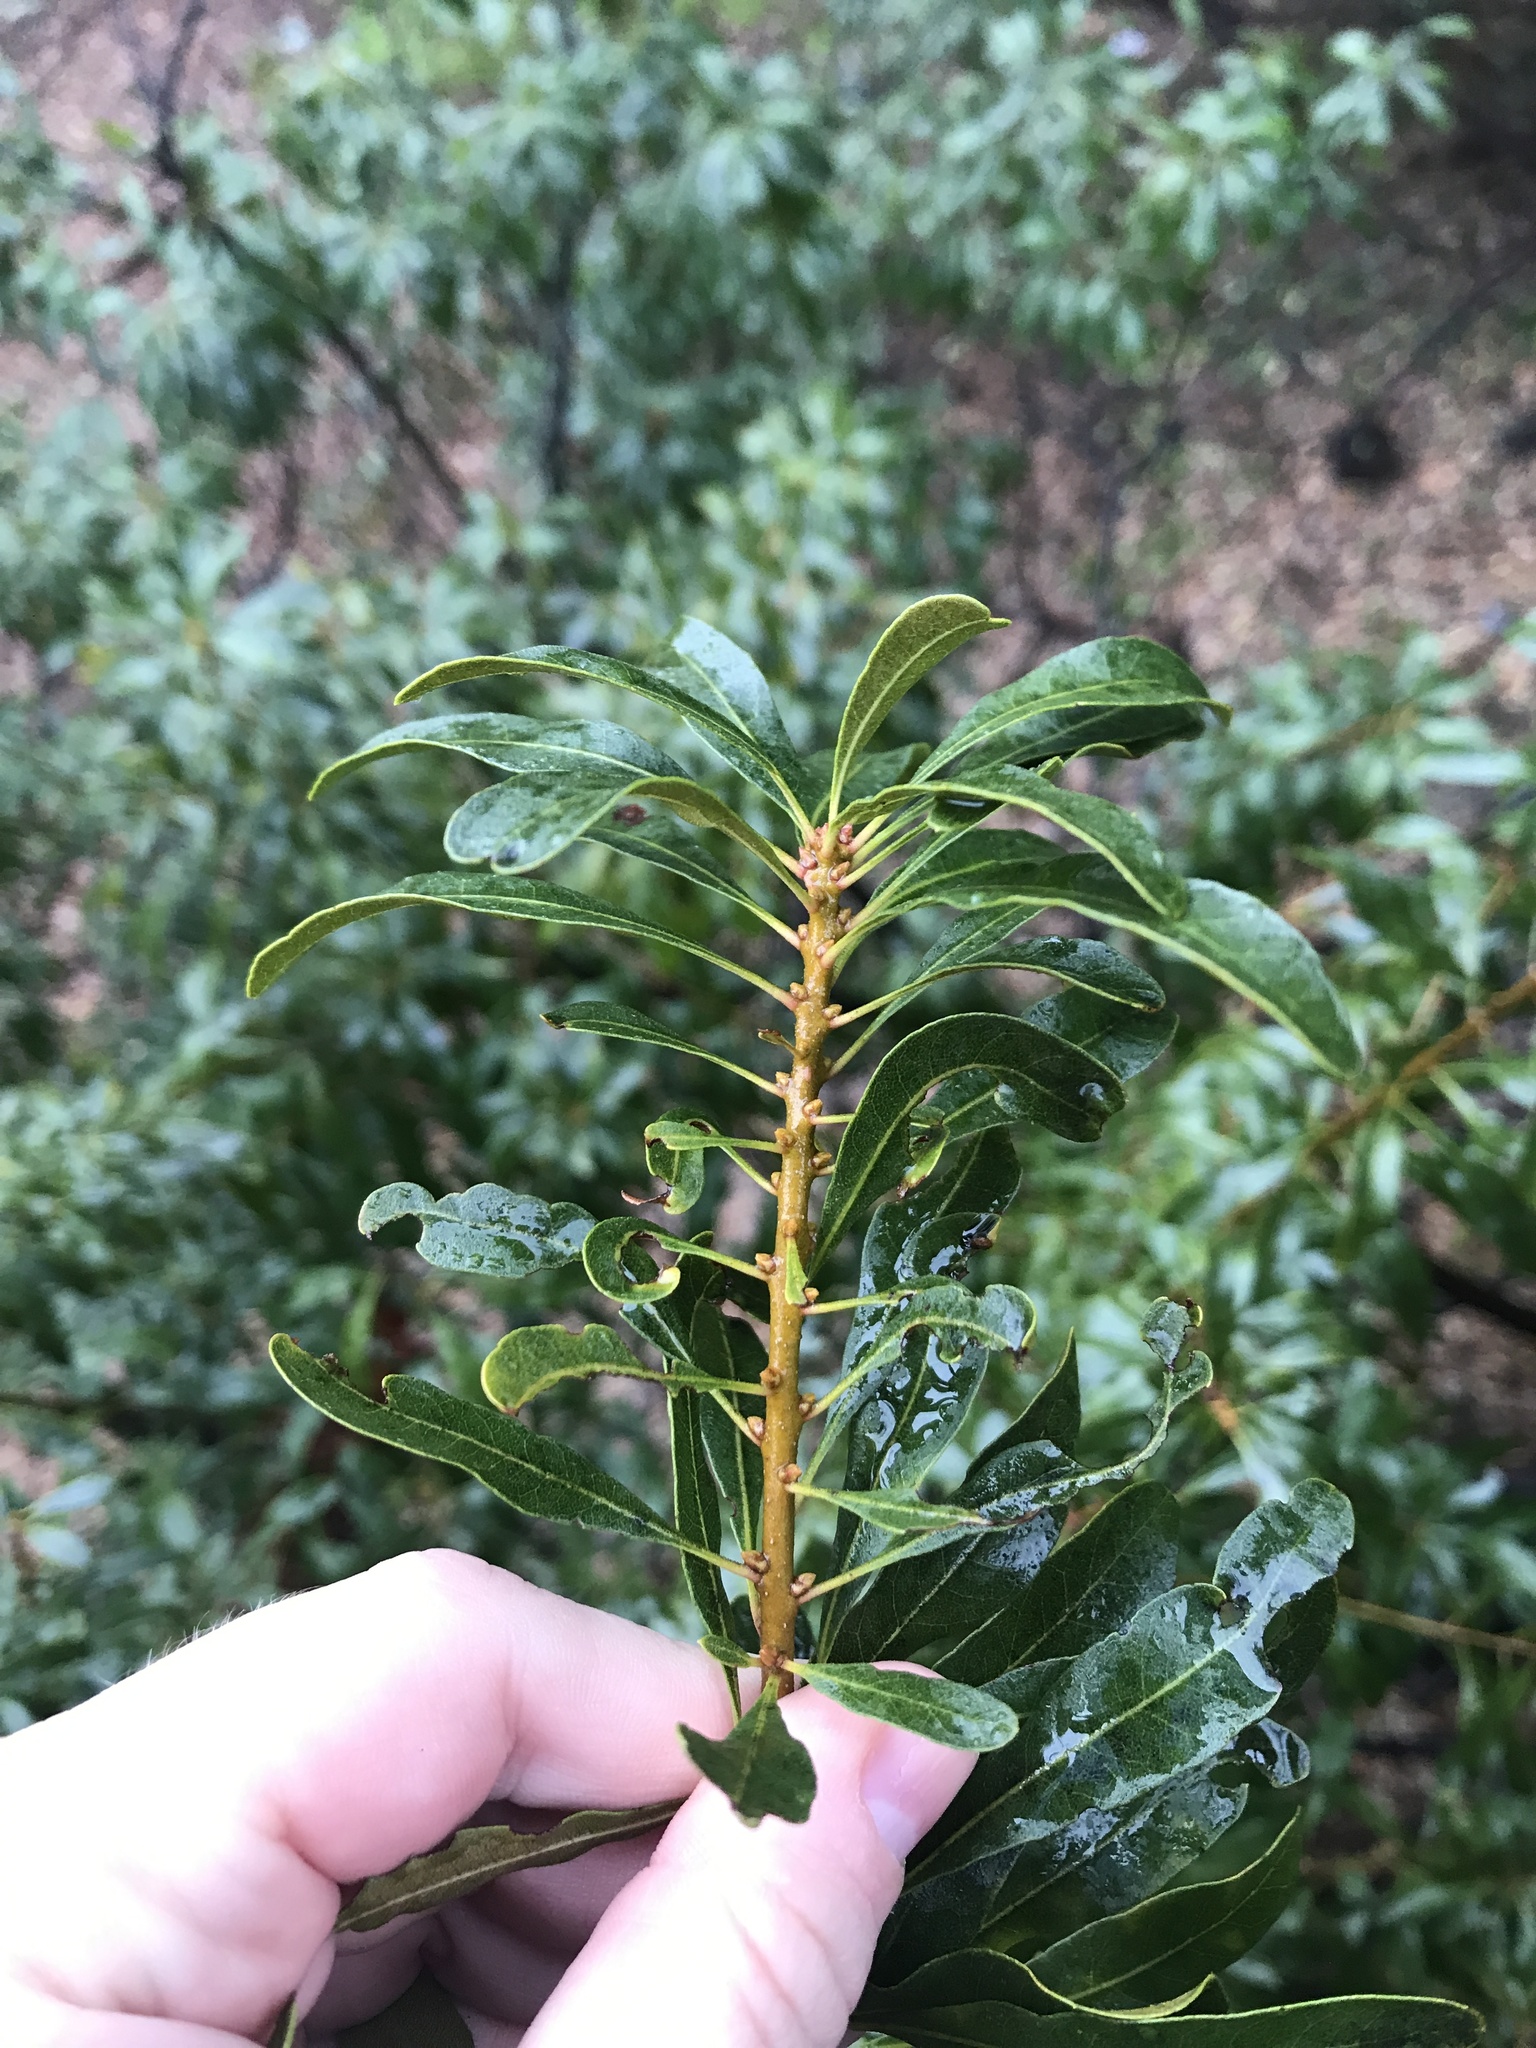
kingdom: Plantae
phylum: Tracheophyta
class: Magnoliopsida
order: Fagales
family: Myricaceae
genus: Morella
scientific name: Morella cerifera
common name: Wax myrtle
